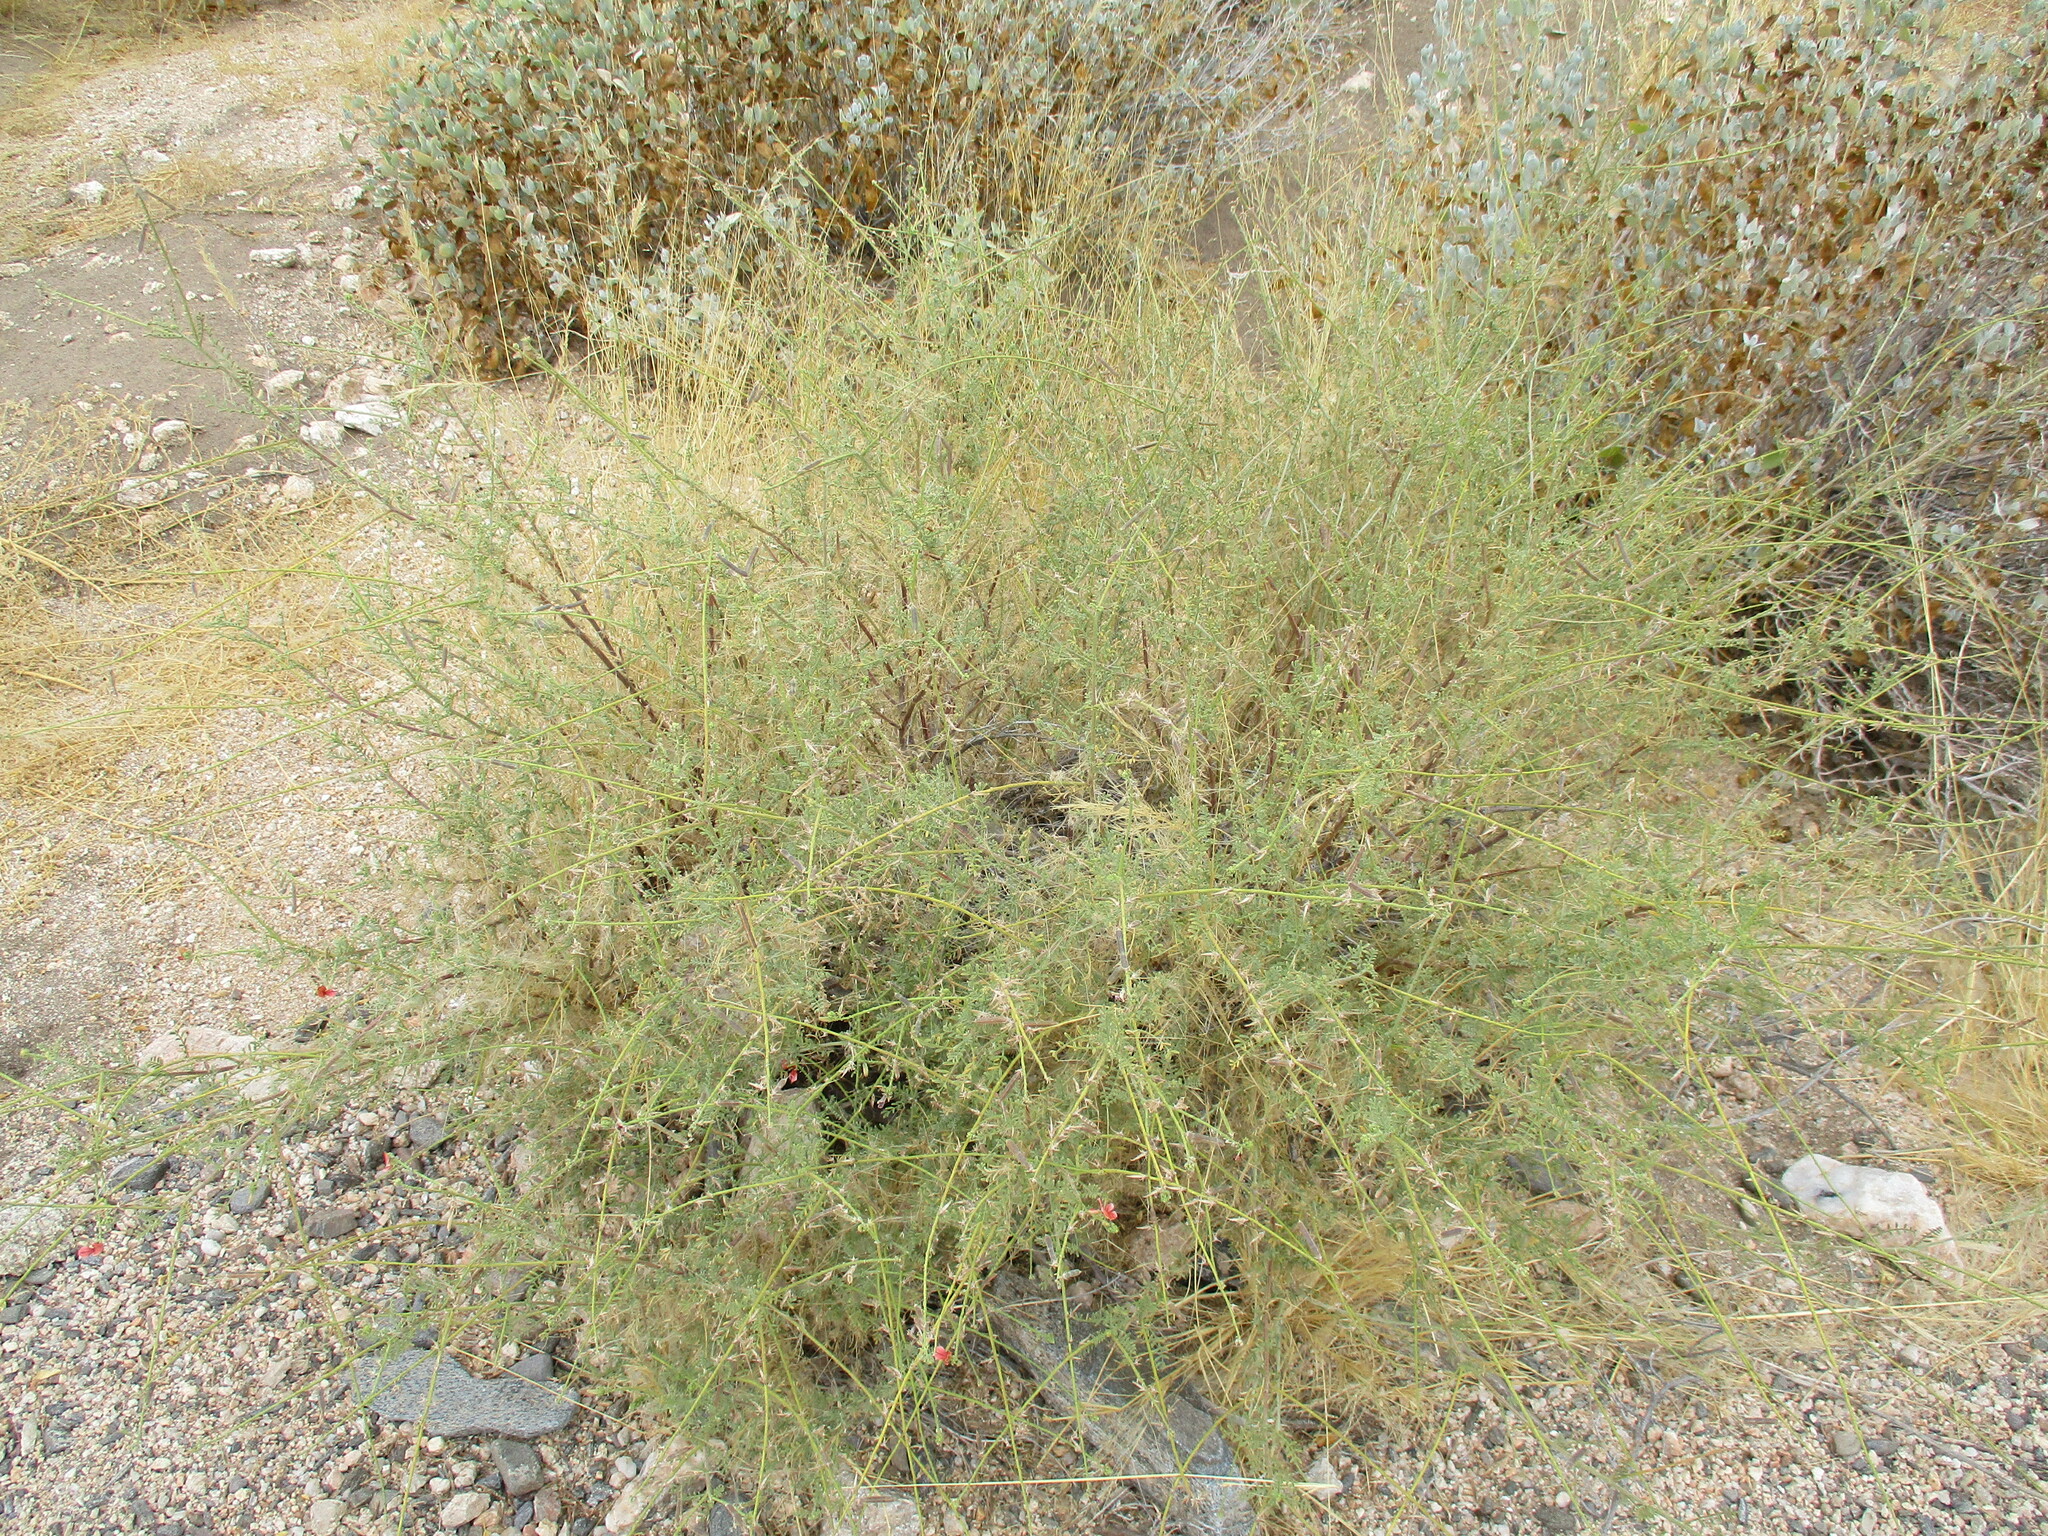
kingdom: Plantae
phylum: Tracheophyta
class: Magnoliopsida
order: Fabales
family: Fabaceae
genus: Indigofera
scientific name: Indigofera heterotricha
